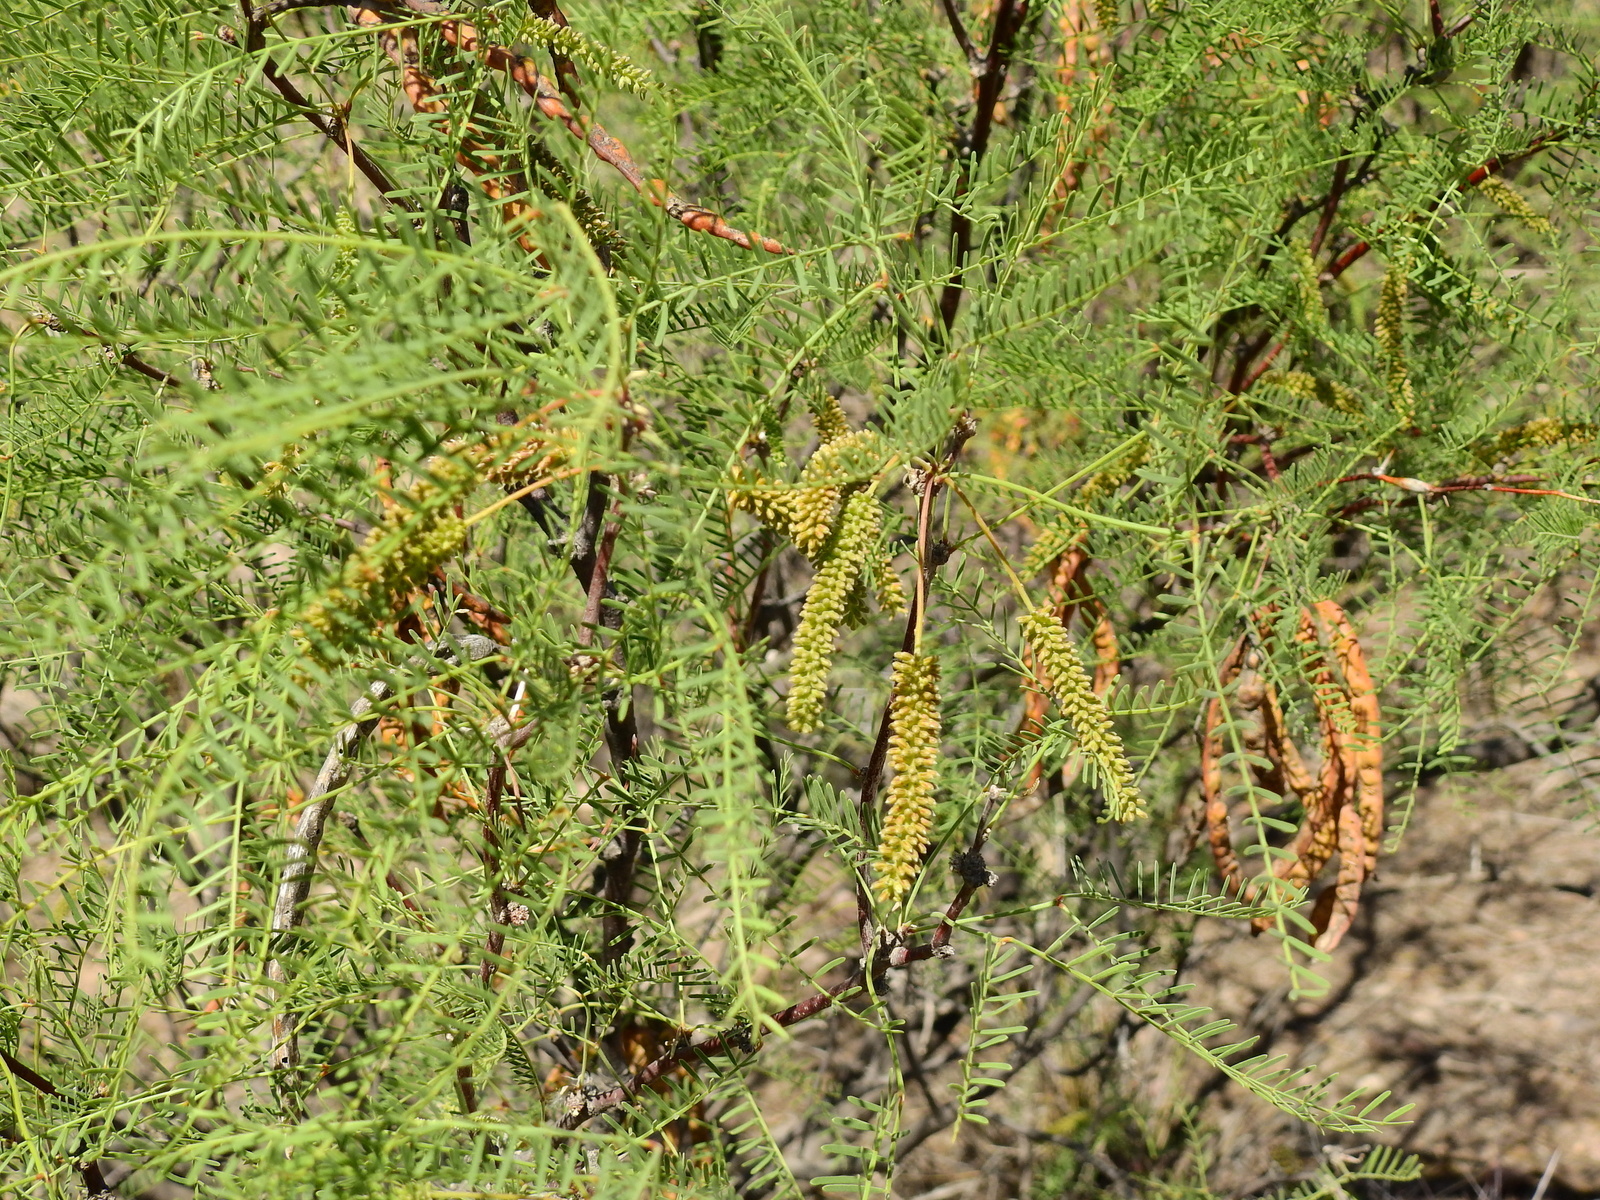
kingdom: Plantae
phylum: Tracheophyta
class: Magnoliopsida
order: Fabales
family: Fabaceae
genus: Prosopis
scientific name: Prosopis flexuosa
